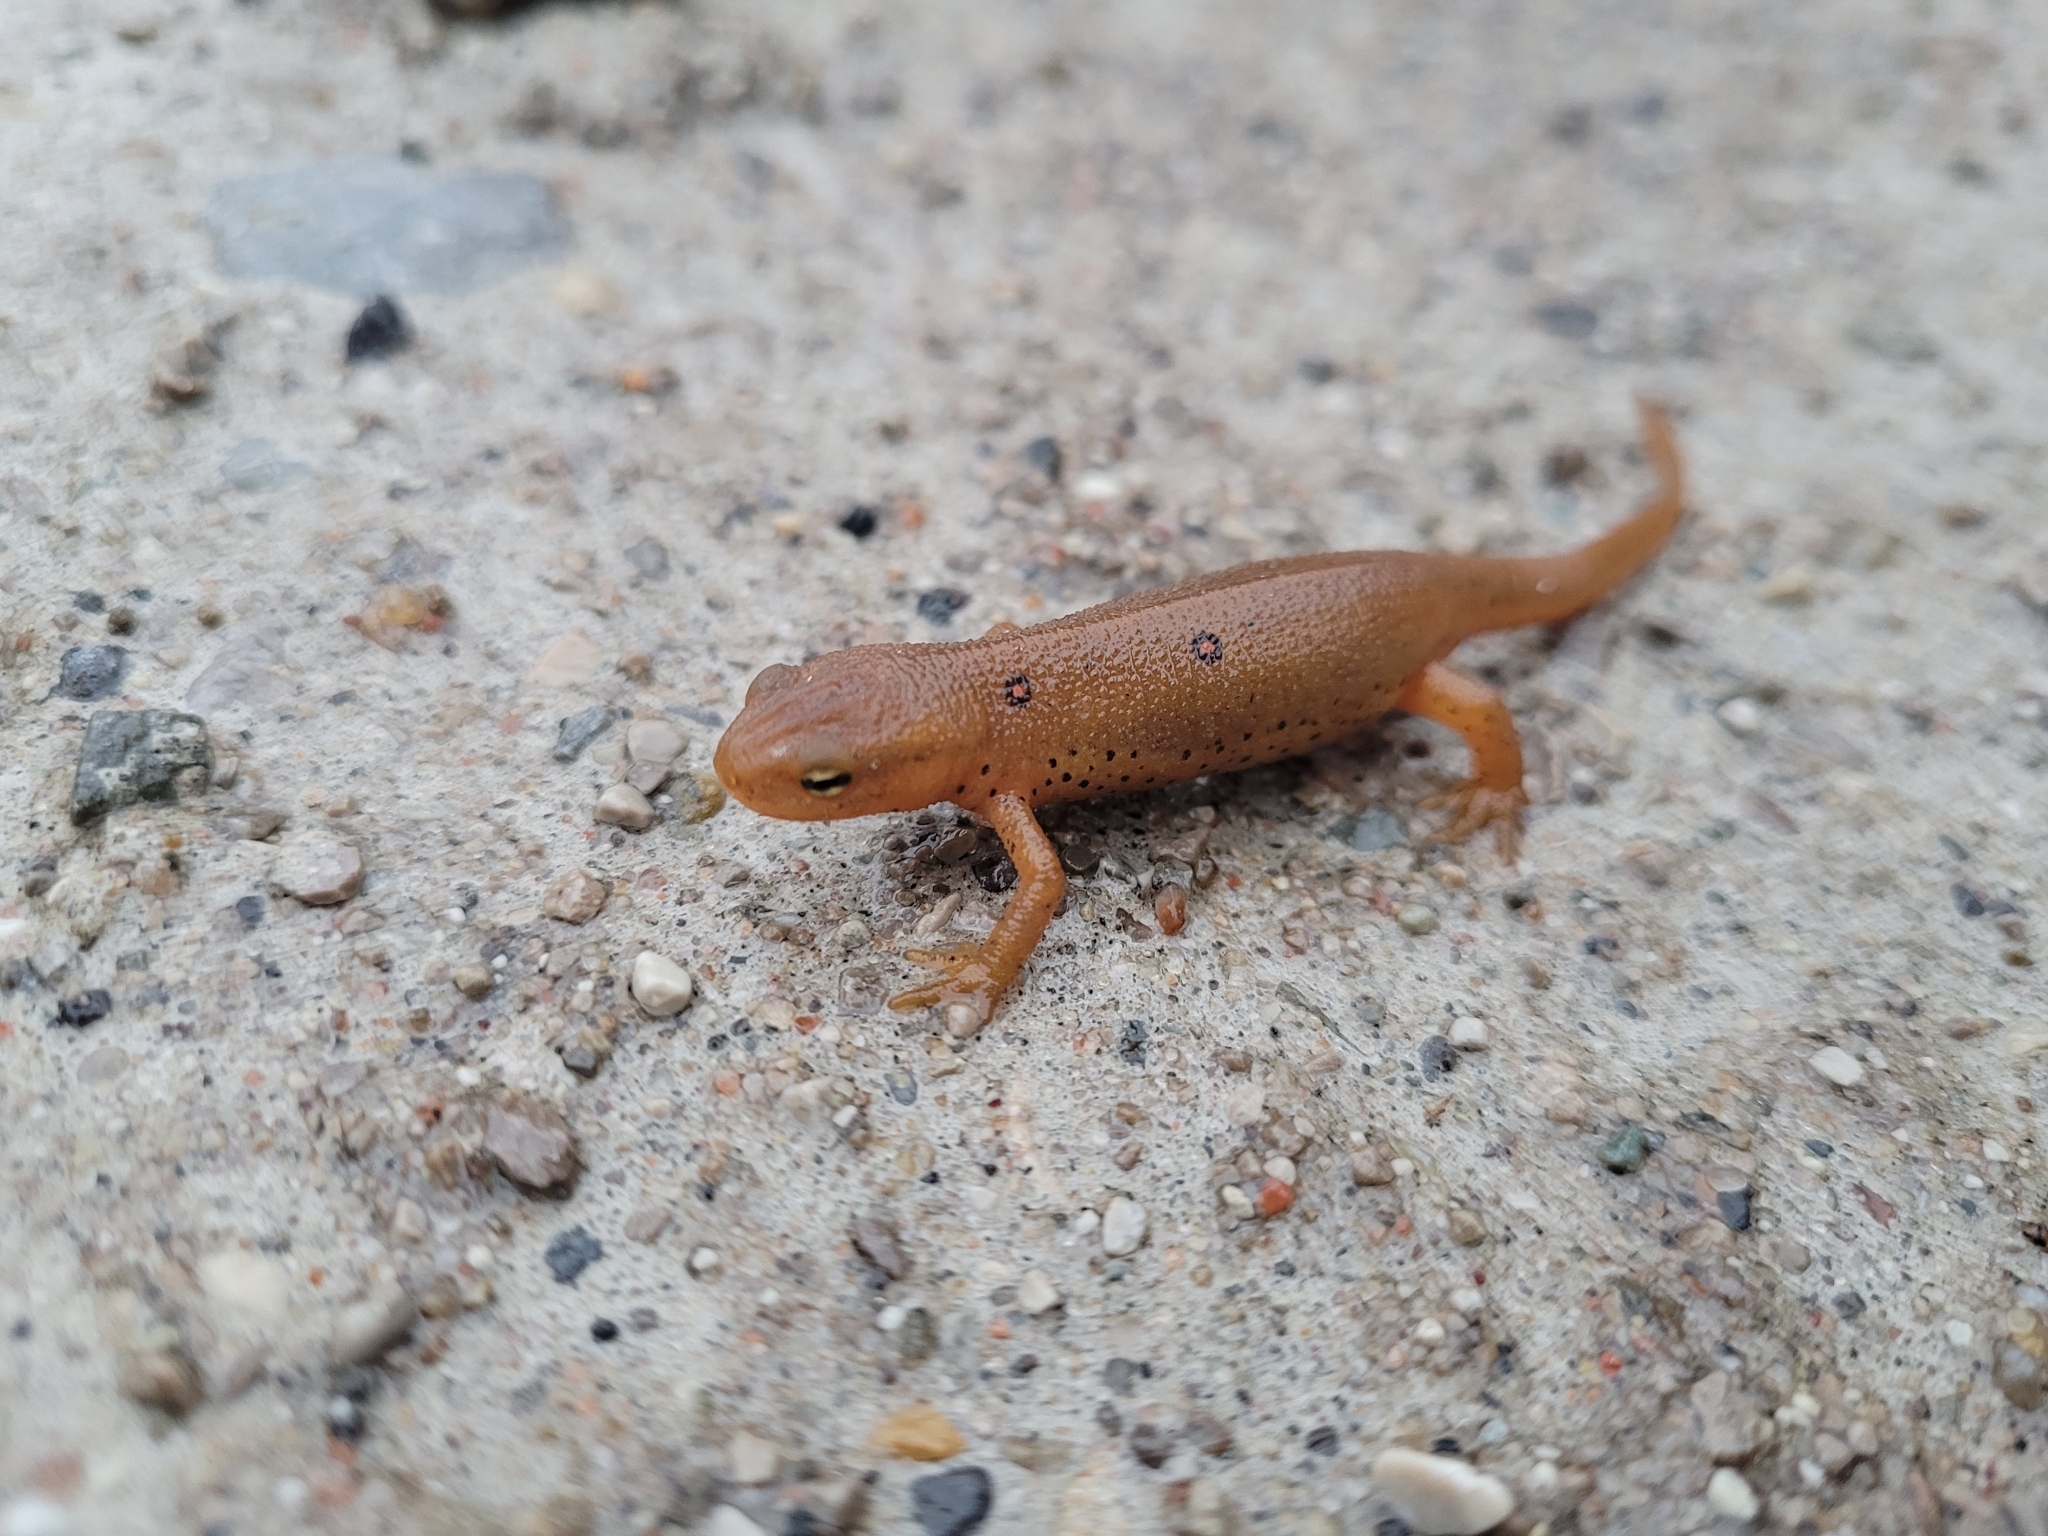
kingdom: Animalia
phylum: Chordata
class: Amphibia
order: Caudata
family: Salamandridae
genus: Notophthalmus
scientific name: Notophthalmus viridescens
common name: Eastern newt
